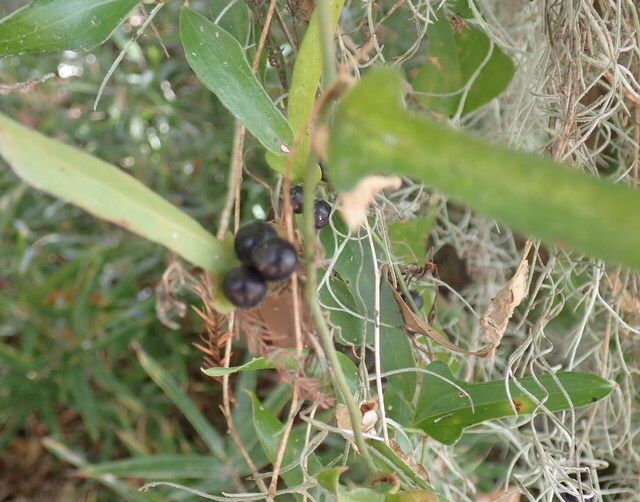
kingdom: Plantae
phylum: Tracheophyta
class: Liliopsida
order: Liliales
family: Smilacaceae
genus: Smilax
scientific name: Smilax auriculata
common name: Wild bamboo
